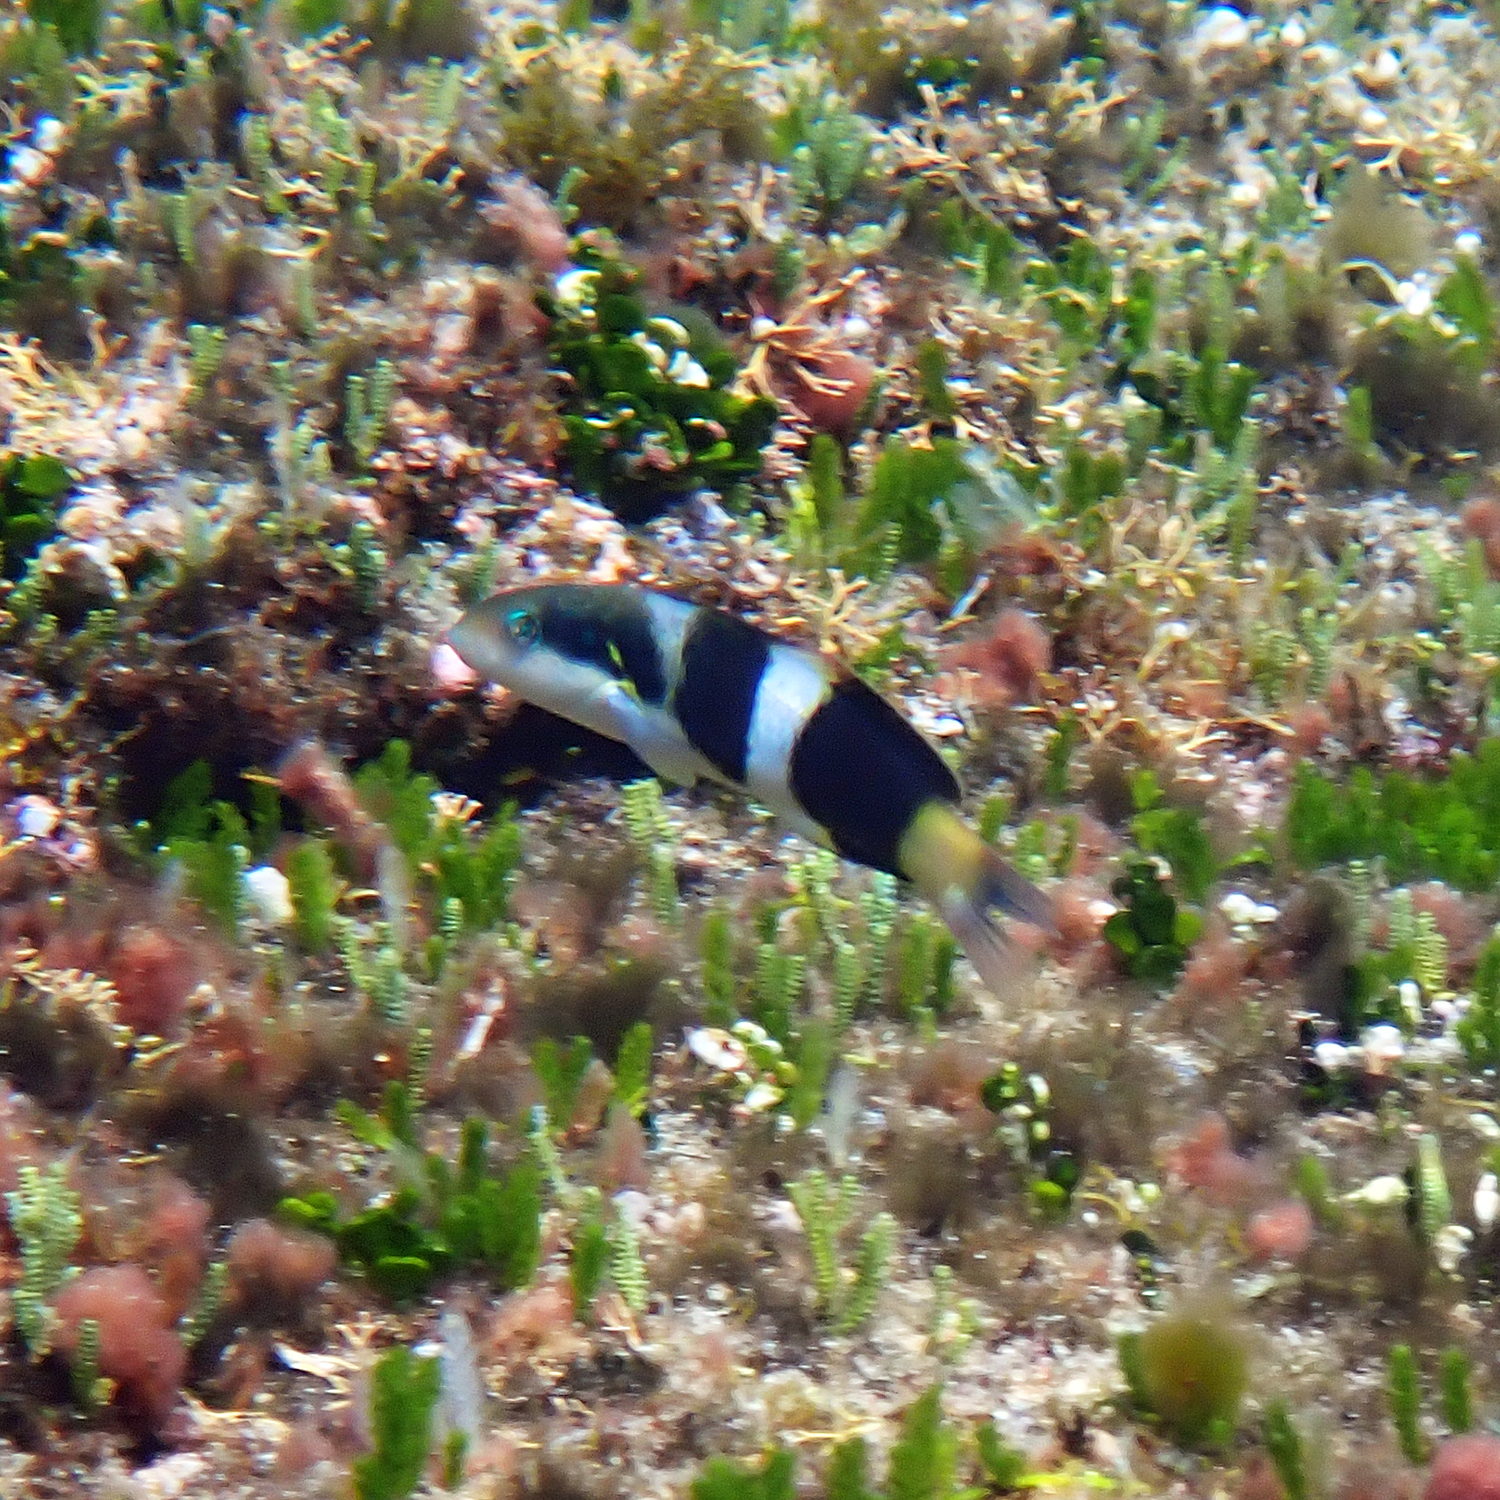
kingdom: Animalia
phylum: Chordata
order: Perciformes
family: Labridae
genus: Thalassoma
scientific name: Thalassoma nigrofasciatum
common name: Black-barred wrasse
